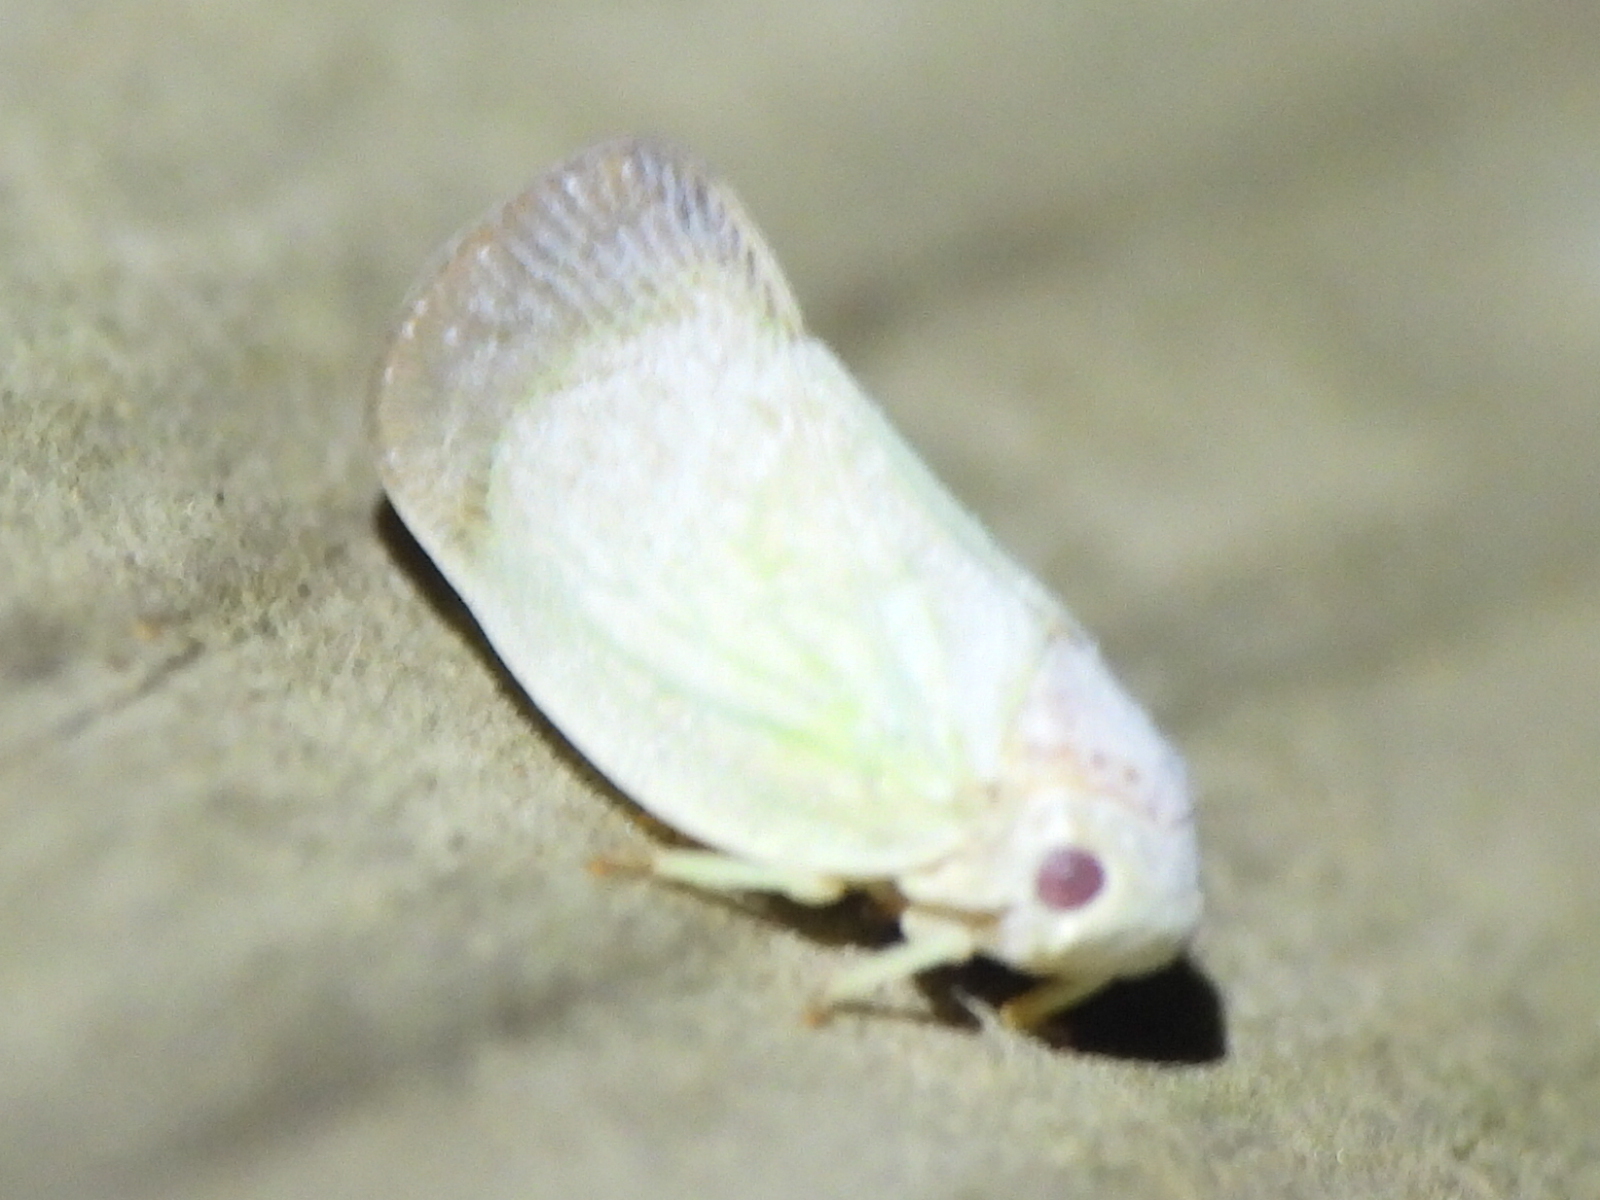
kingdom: Animalia
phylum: Arthropoda
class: Insecta
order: Hemiptera
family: Flatidae
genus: Flatormenis
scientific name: Flatormenis saucia
